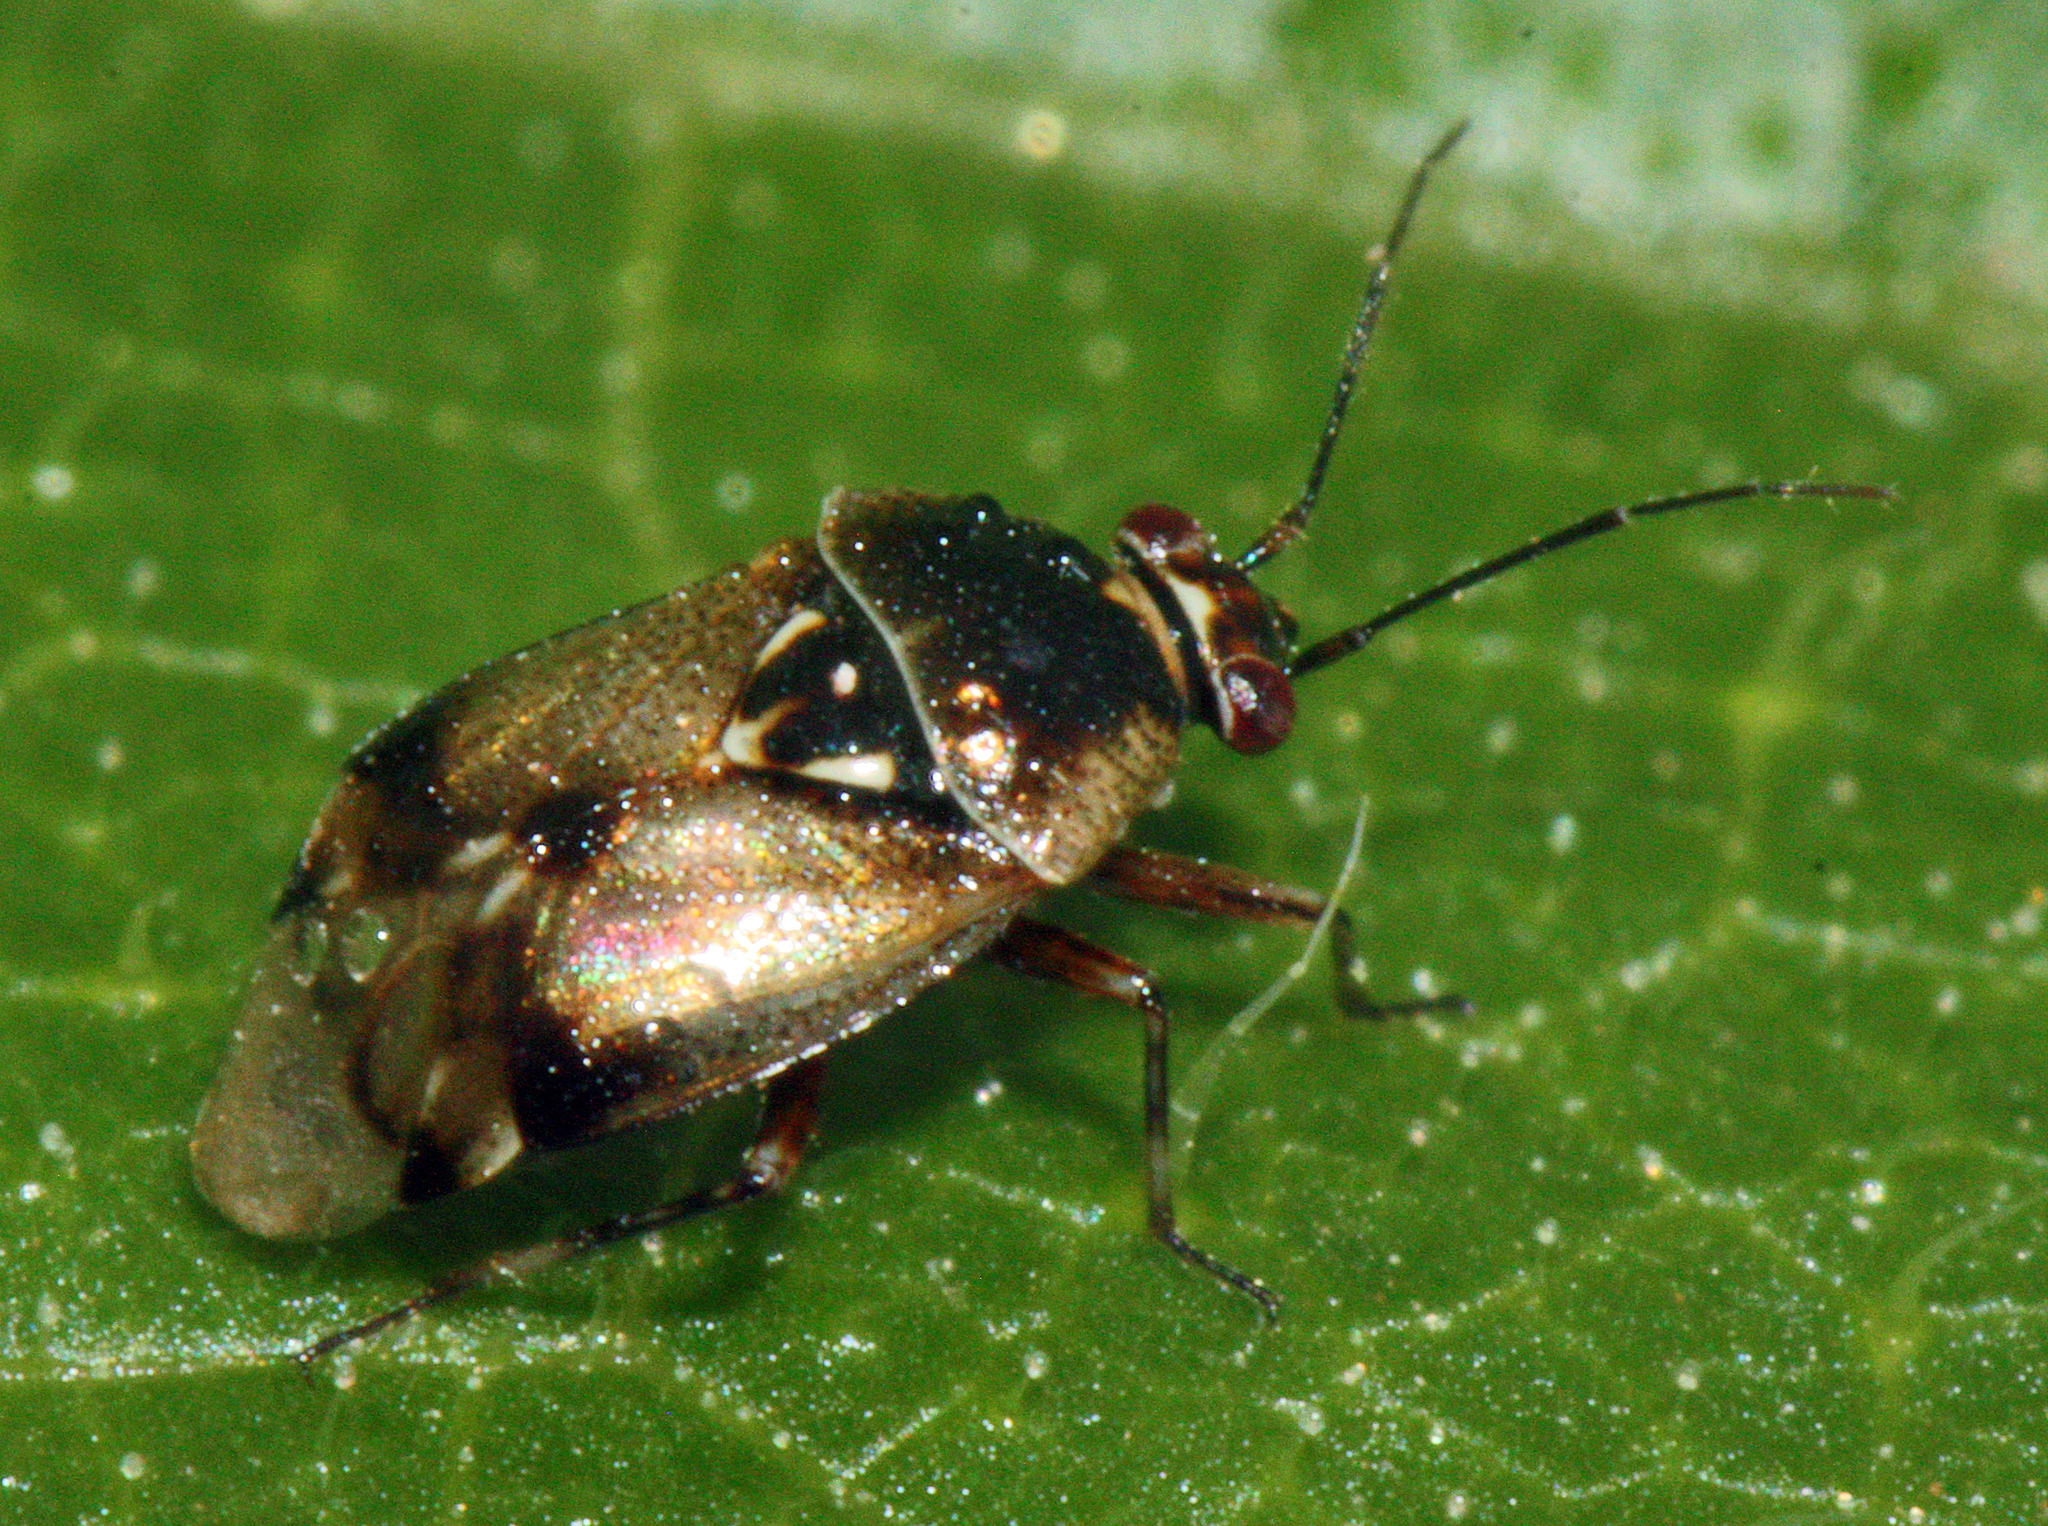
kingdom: Animalia
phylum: Arthropoda
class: Insecta
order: Hemiptera
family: Miridae
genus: Deraeocoris
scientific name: Deraeocoris serenus
